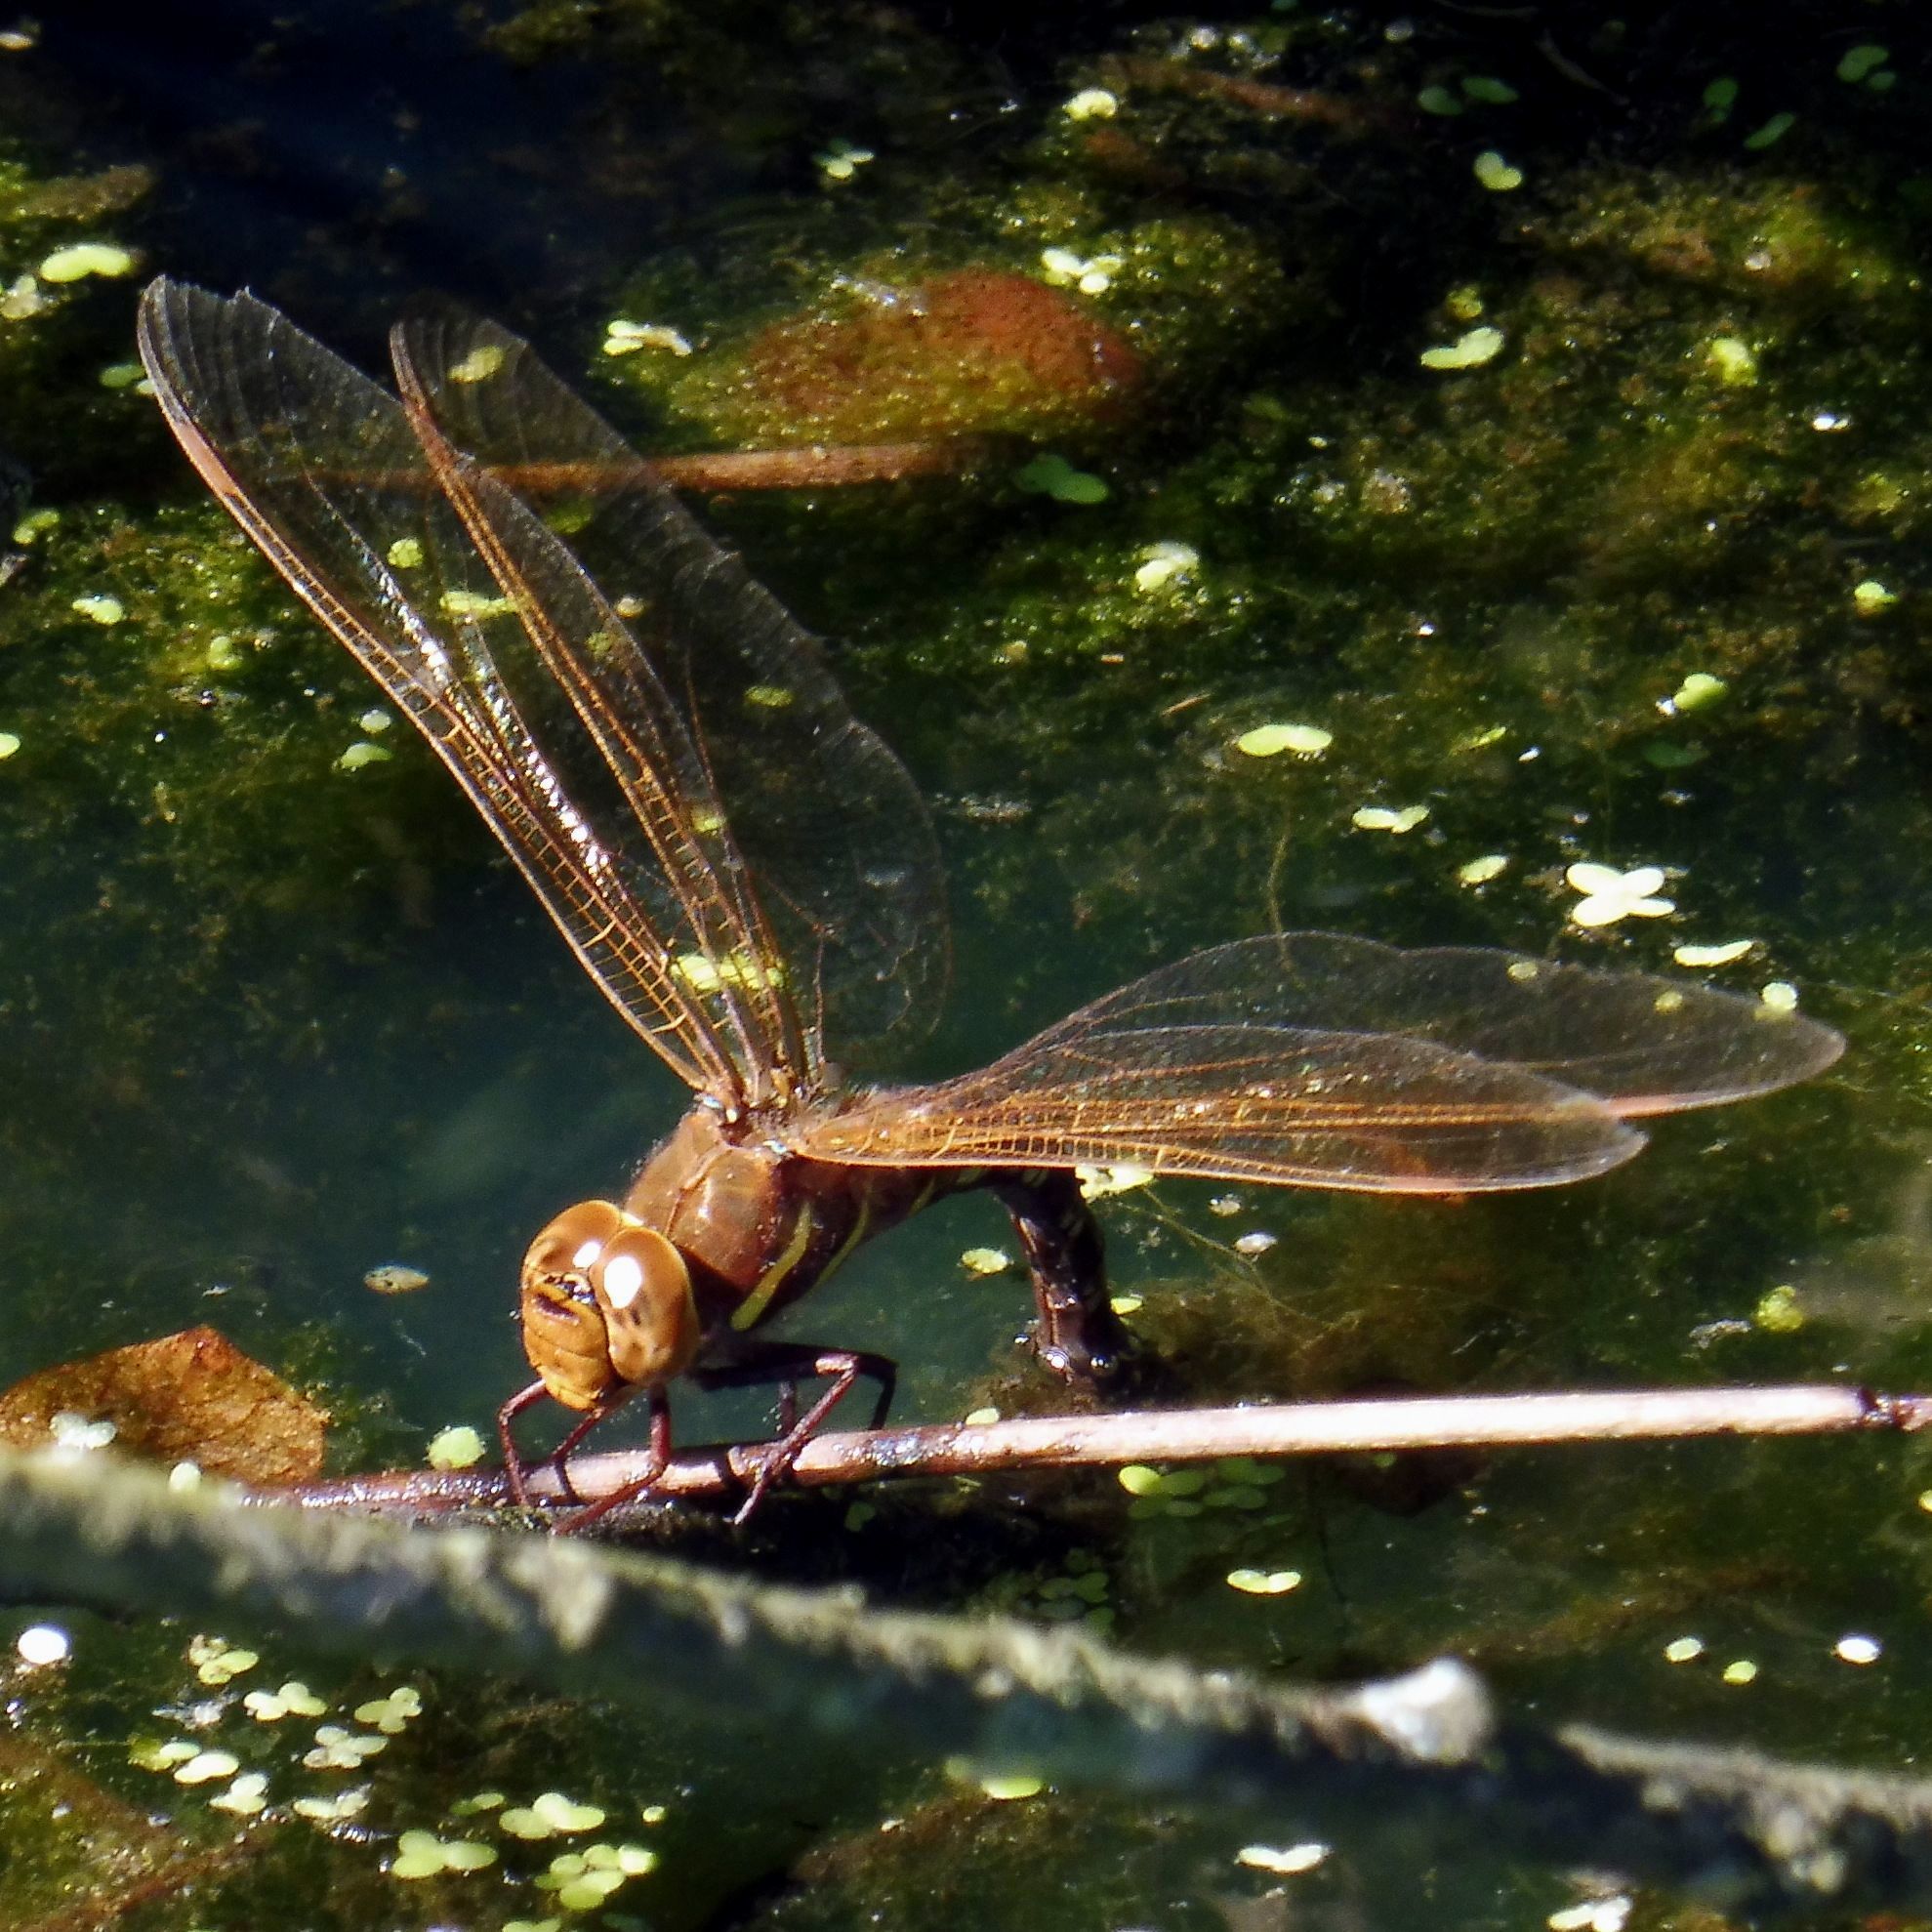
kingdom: Animalia
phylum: Arthropoda
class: Insecta
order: Odonata
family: Aeshnidae
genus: Aeshna
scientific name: Aeshna grandis
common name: Brown hawker
